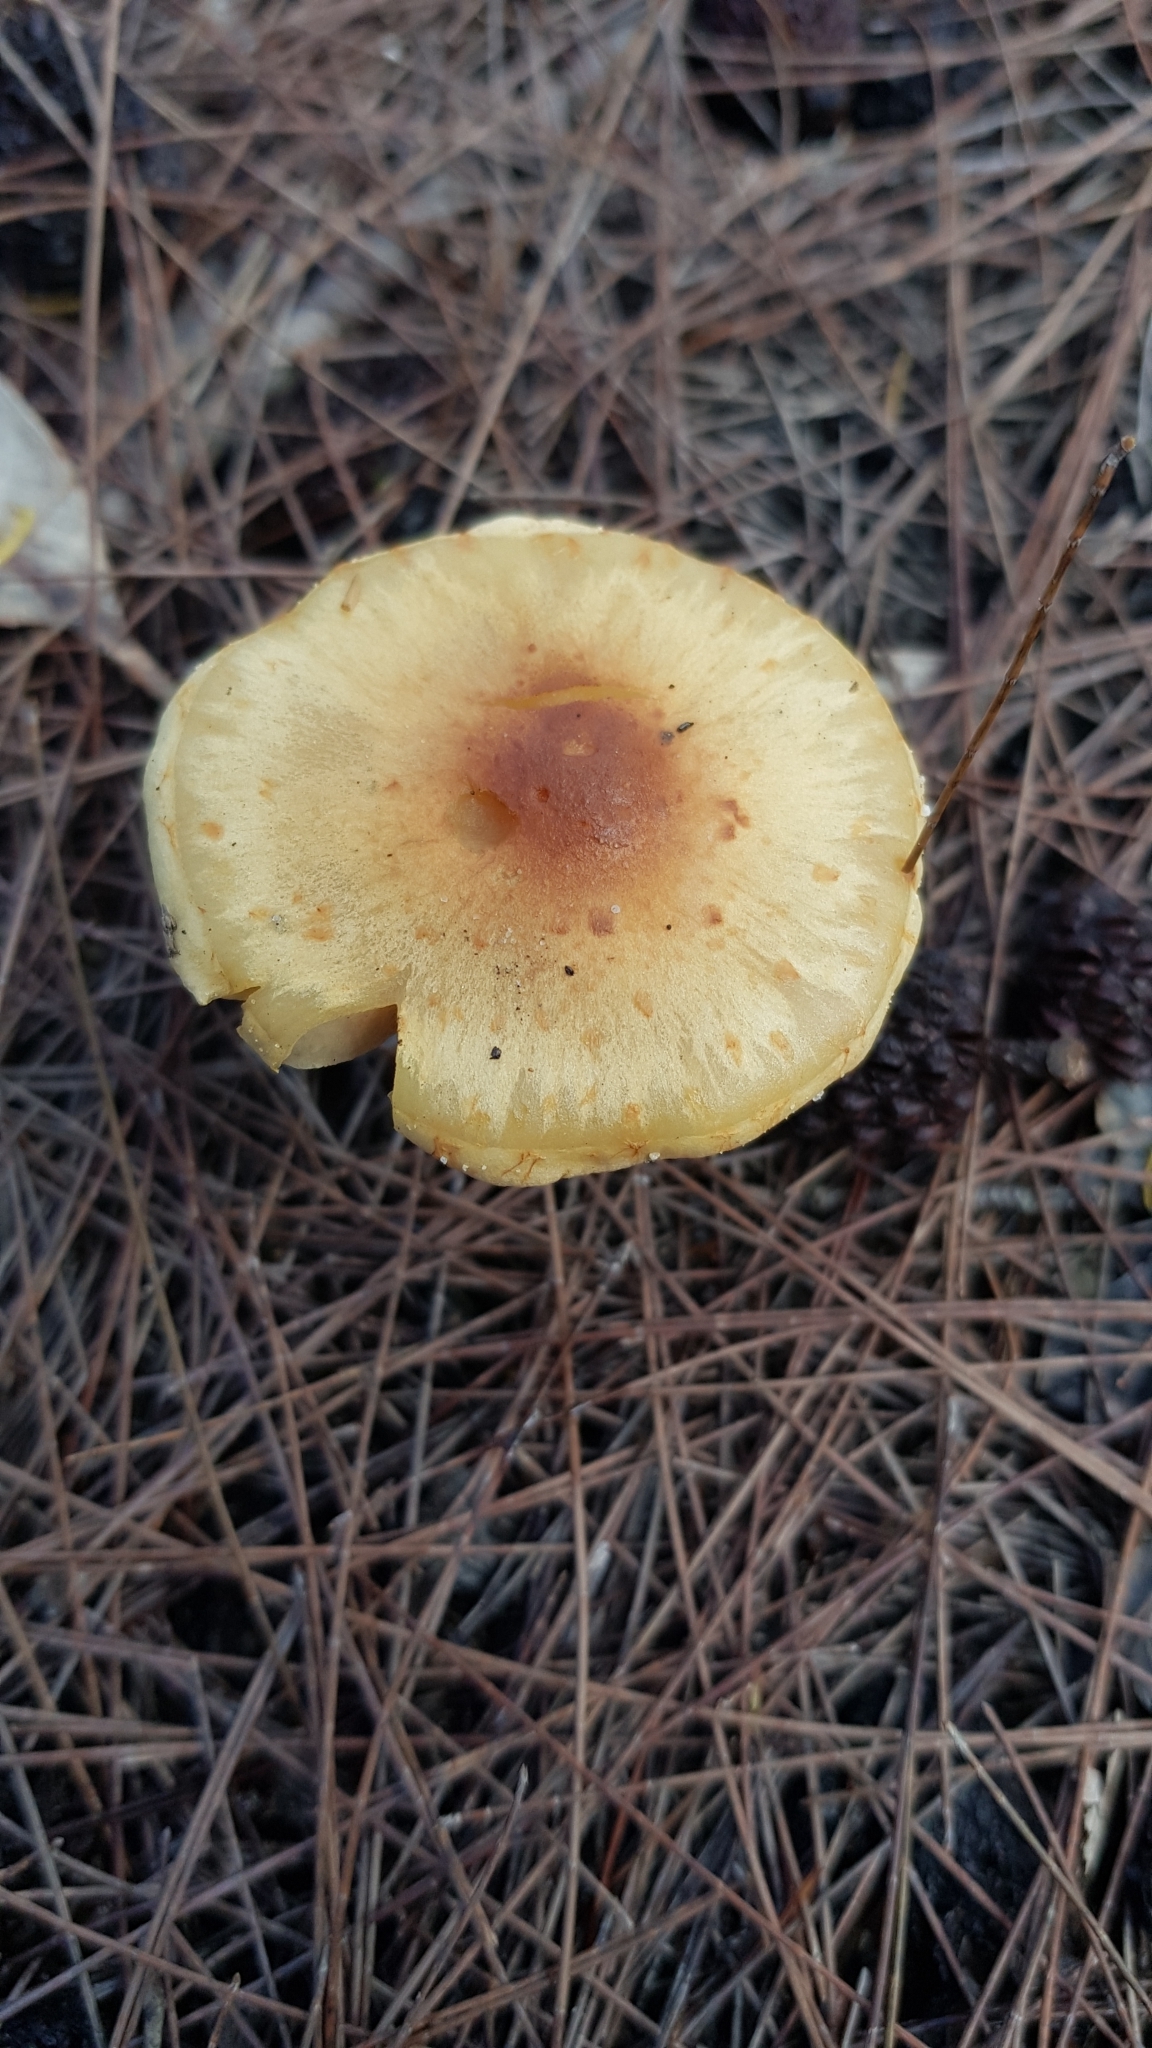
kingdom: Fungi
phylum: Basidiomycota
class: Agaricomycetes
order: Agaricales
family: Strophariaceae
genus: Pholiota
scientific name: Pholiota communis
